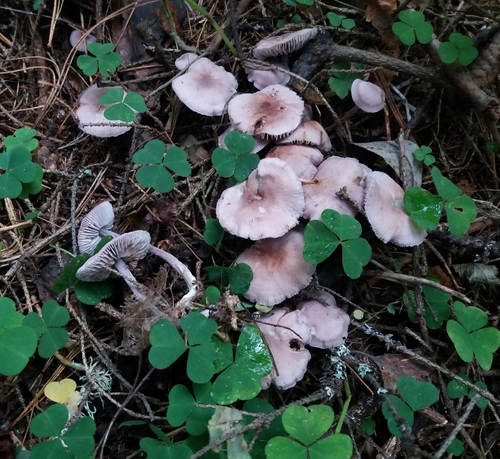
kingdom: Fungi
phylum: Basidiomycota
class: Agaricomycetes
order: Agaricales
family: Mycenaceae
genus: Mycena
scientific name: Mycena pura
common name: Lilac bonnet
